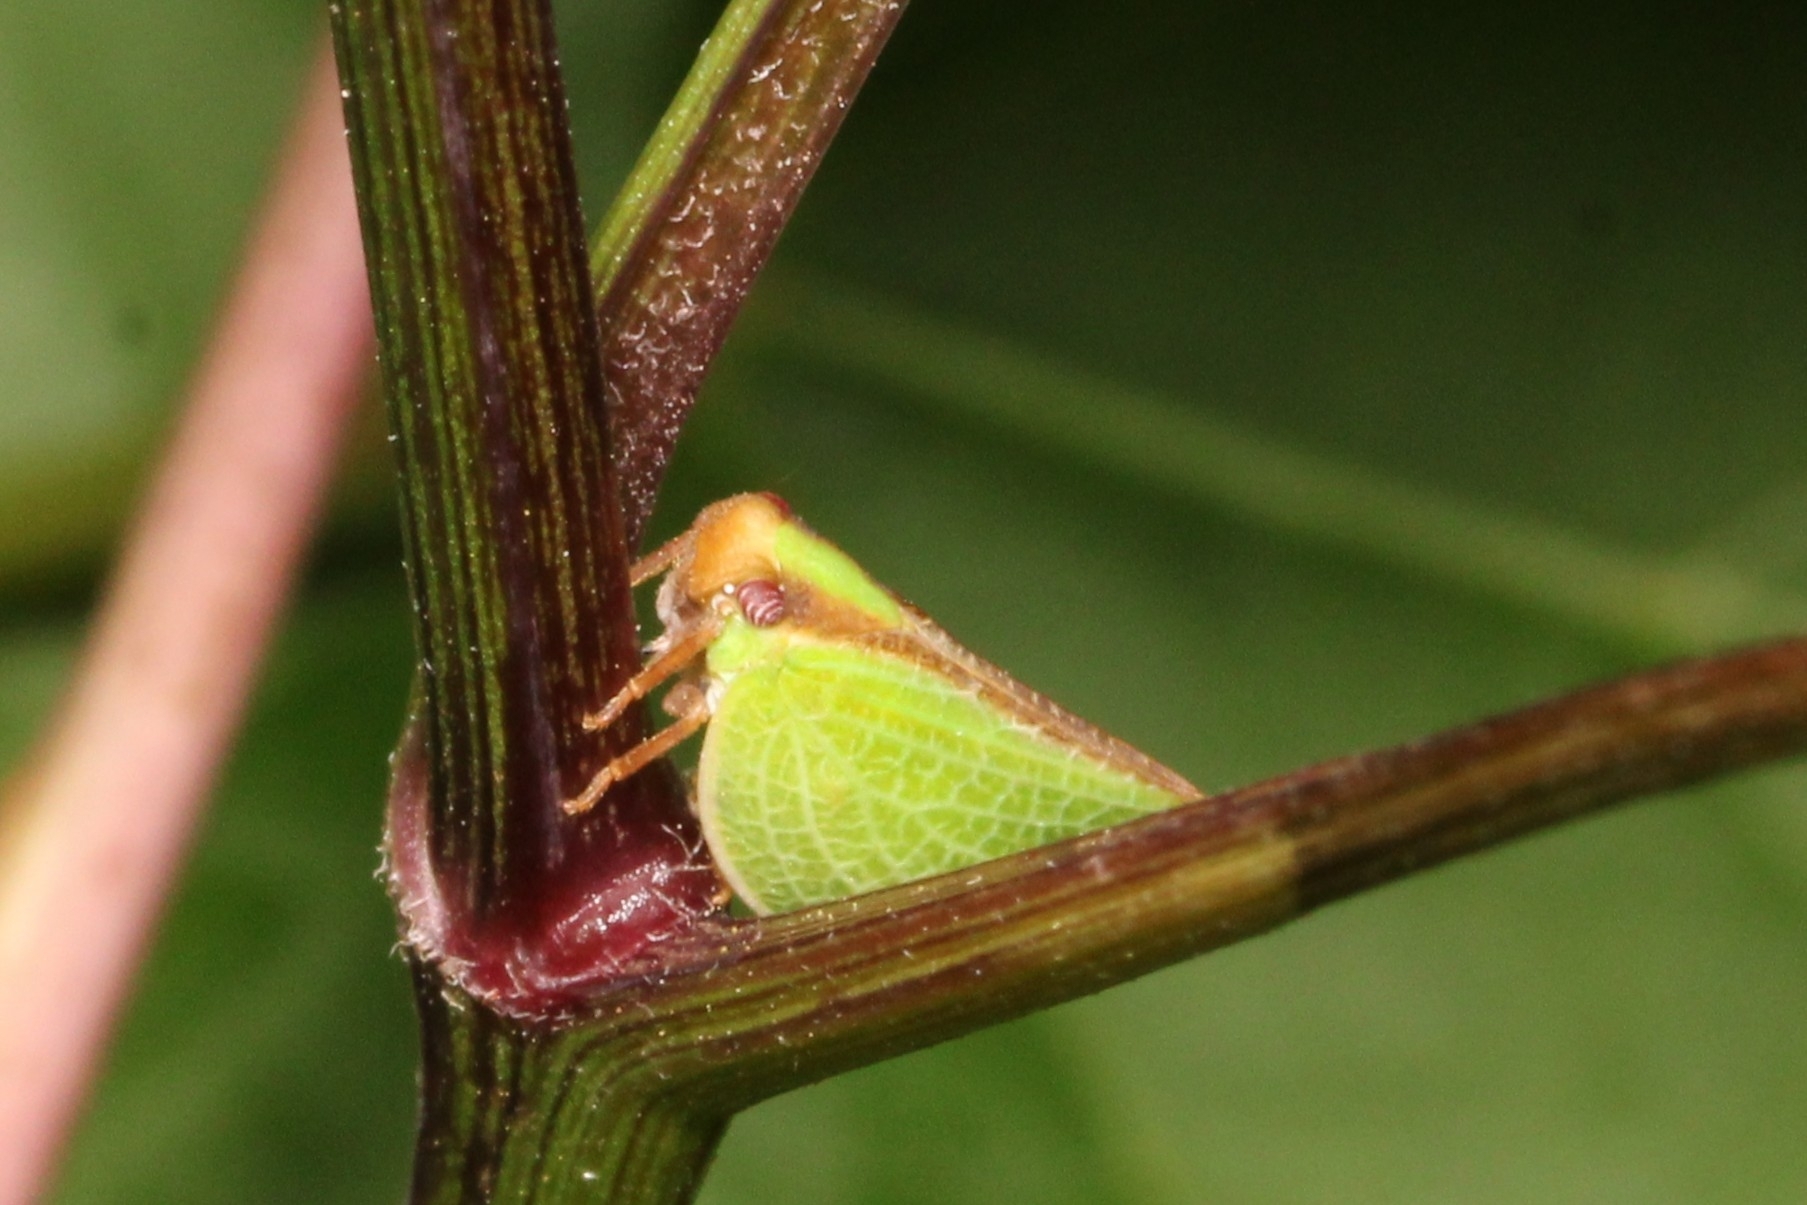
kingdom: Animalia
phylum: Arthropoda
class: Insecta
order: Hemiptera
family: Acanaloniidae
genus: Acanalonia
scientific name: Acanalonia bivittata
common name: Two-striped planthopper
